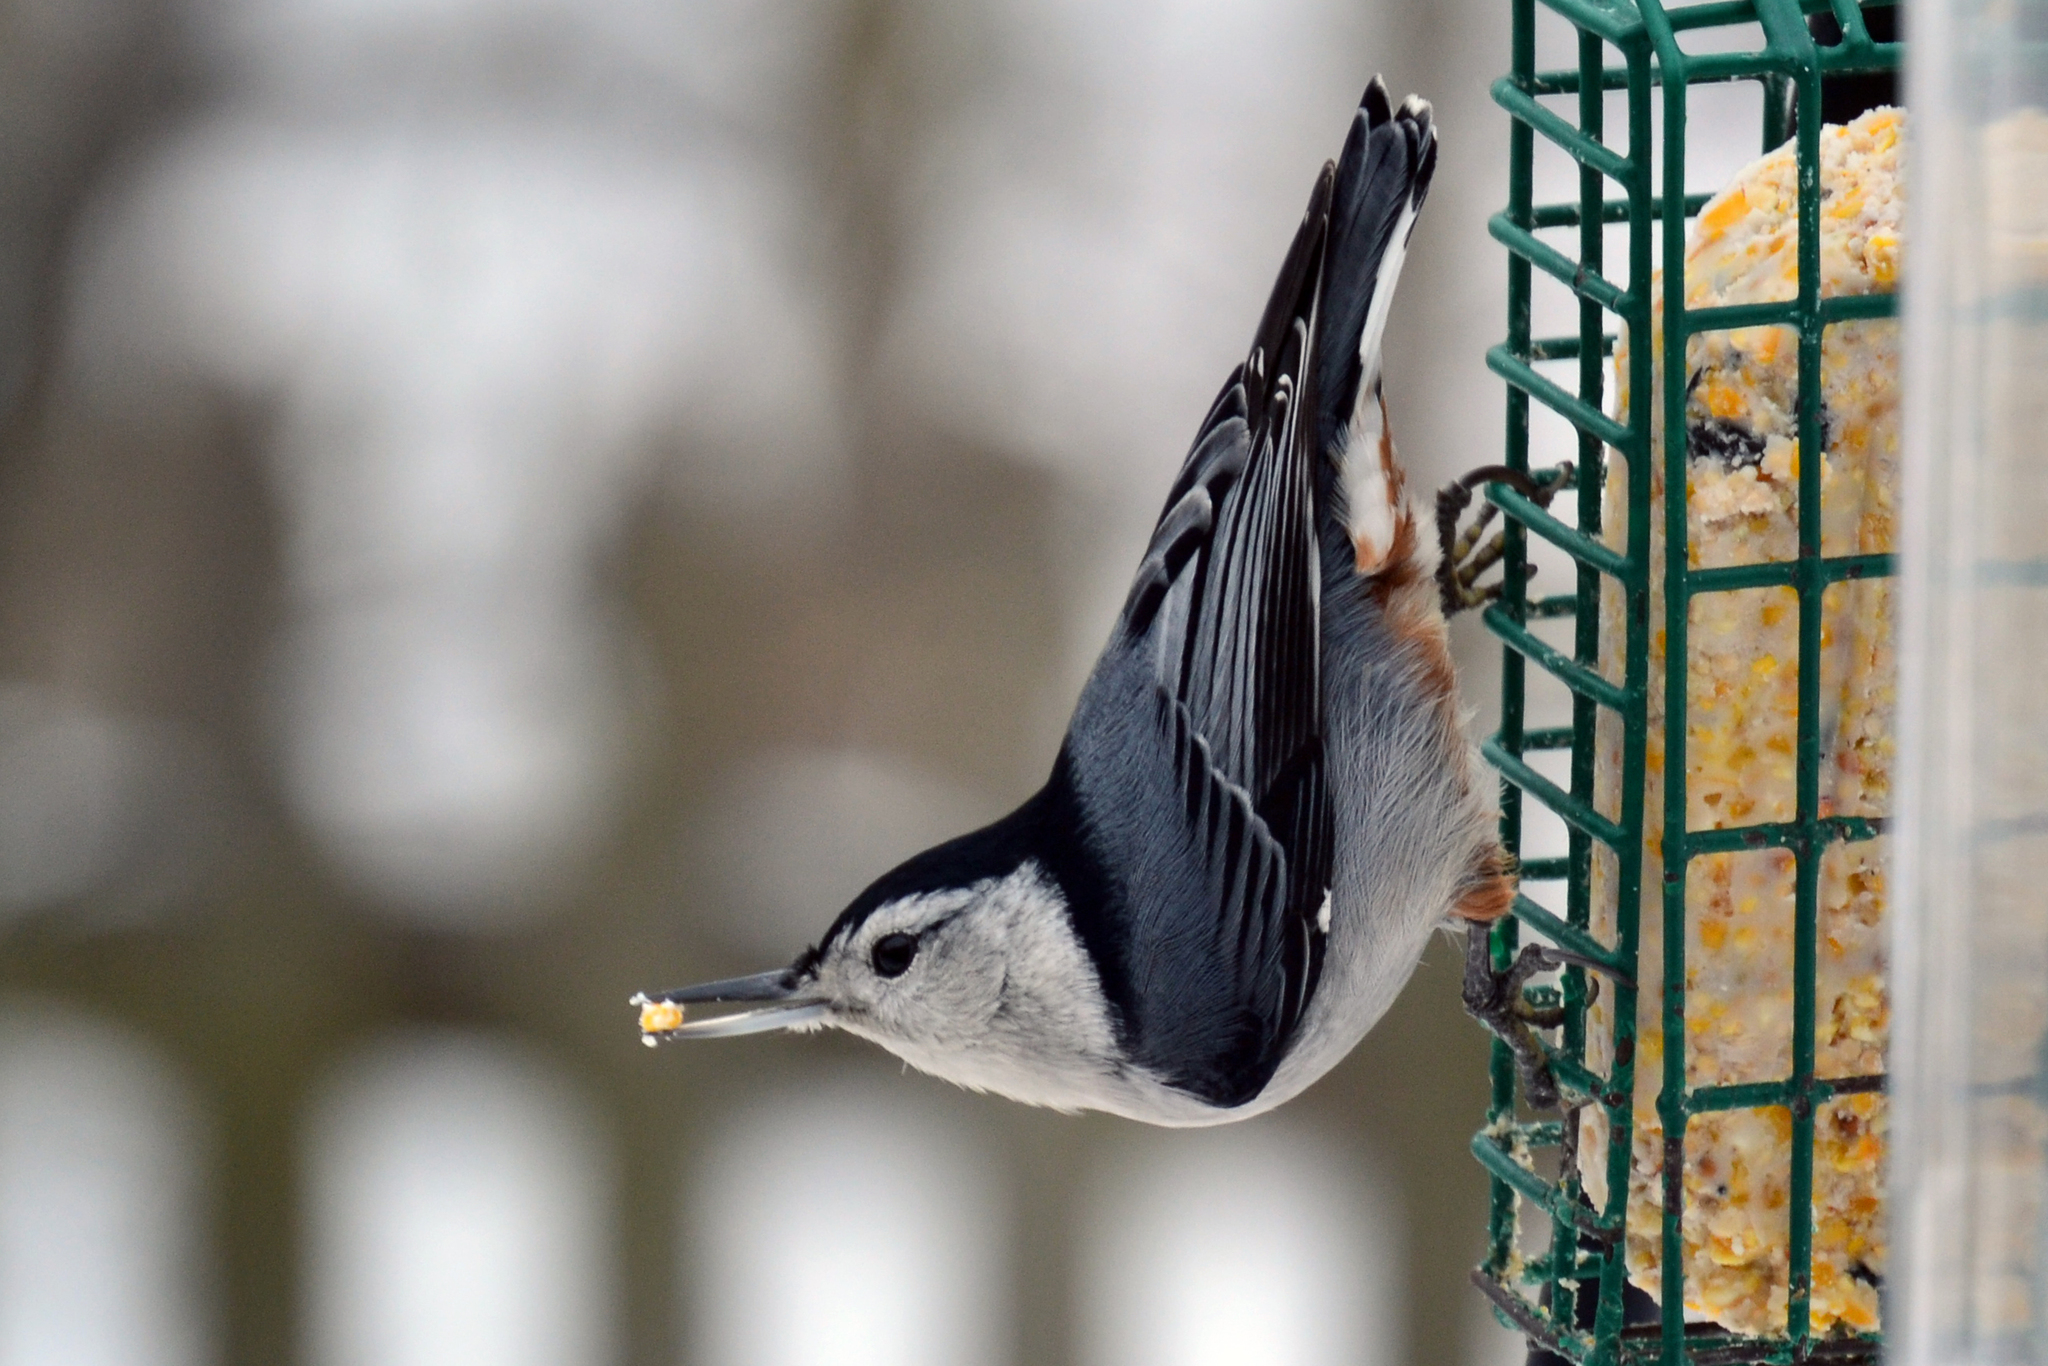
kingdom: Animalia
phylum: Chordata
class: Aves
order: Passeriformes
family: Sittidae
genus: Sitta
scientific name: Sitta carolinensis
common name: White-breasted nuthatch
